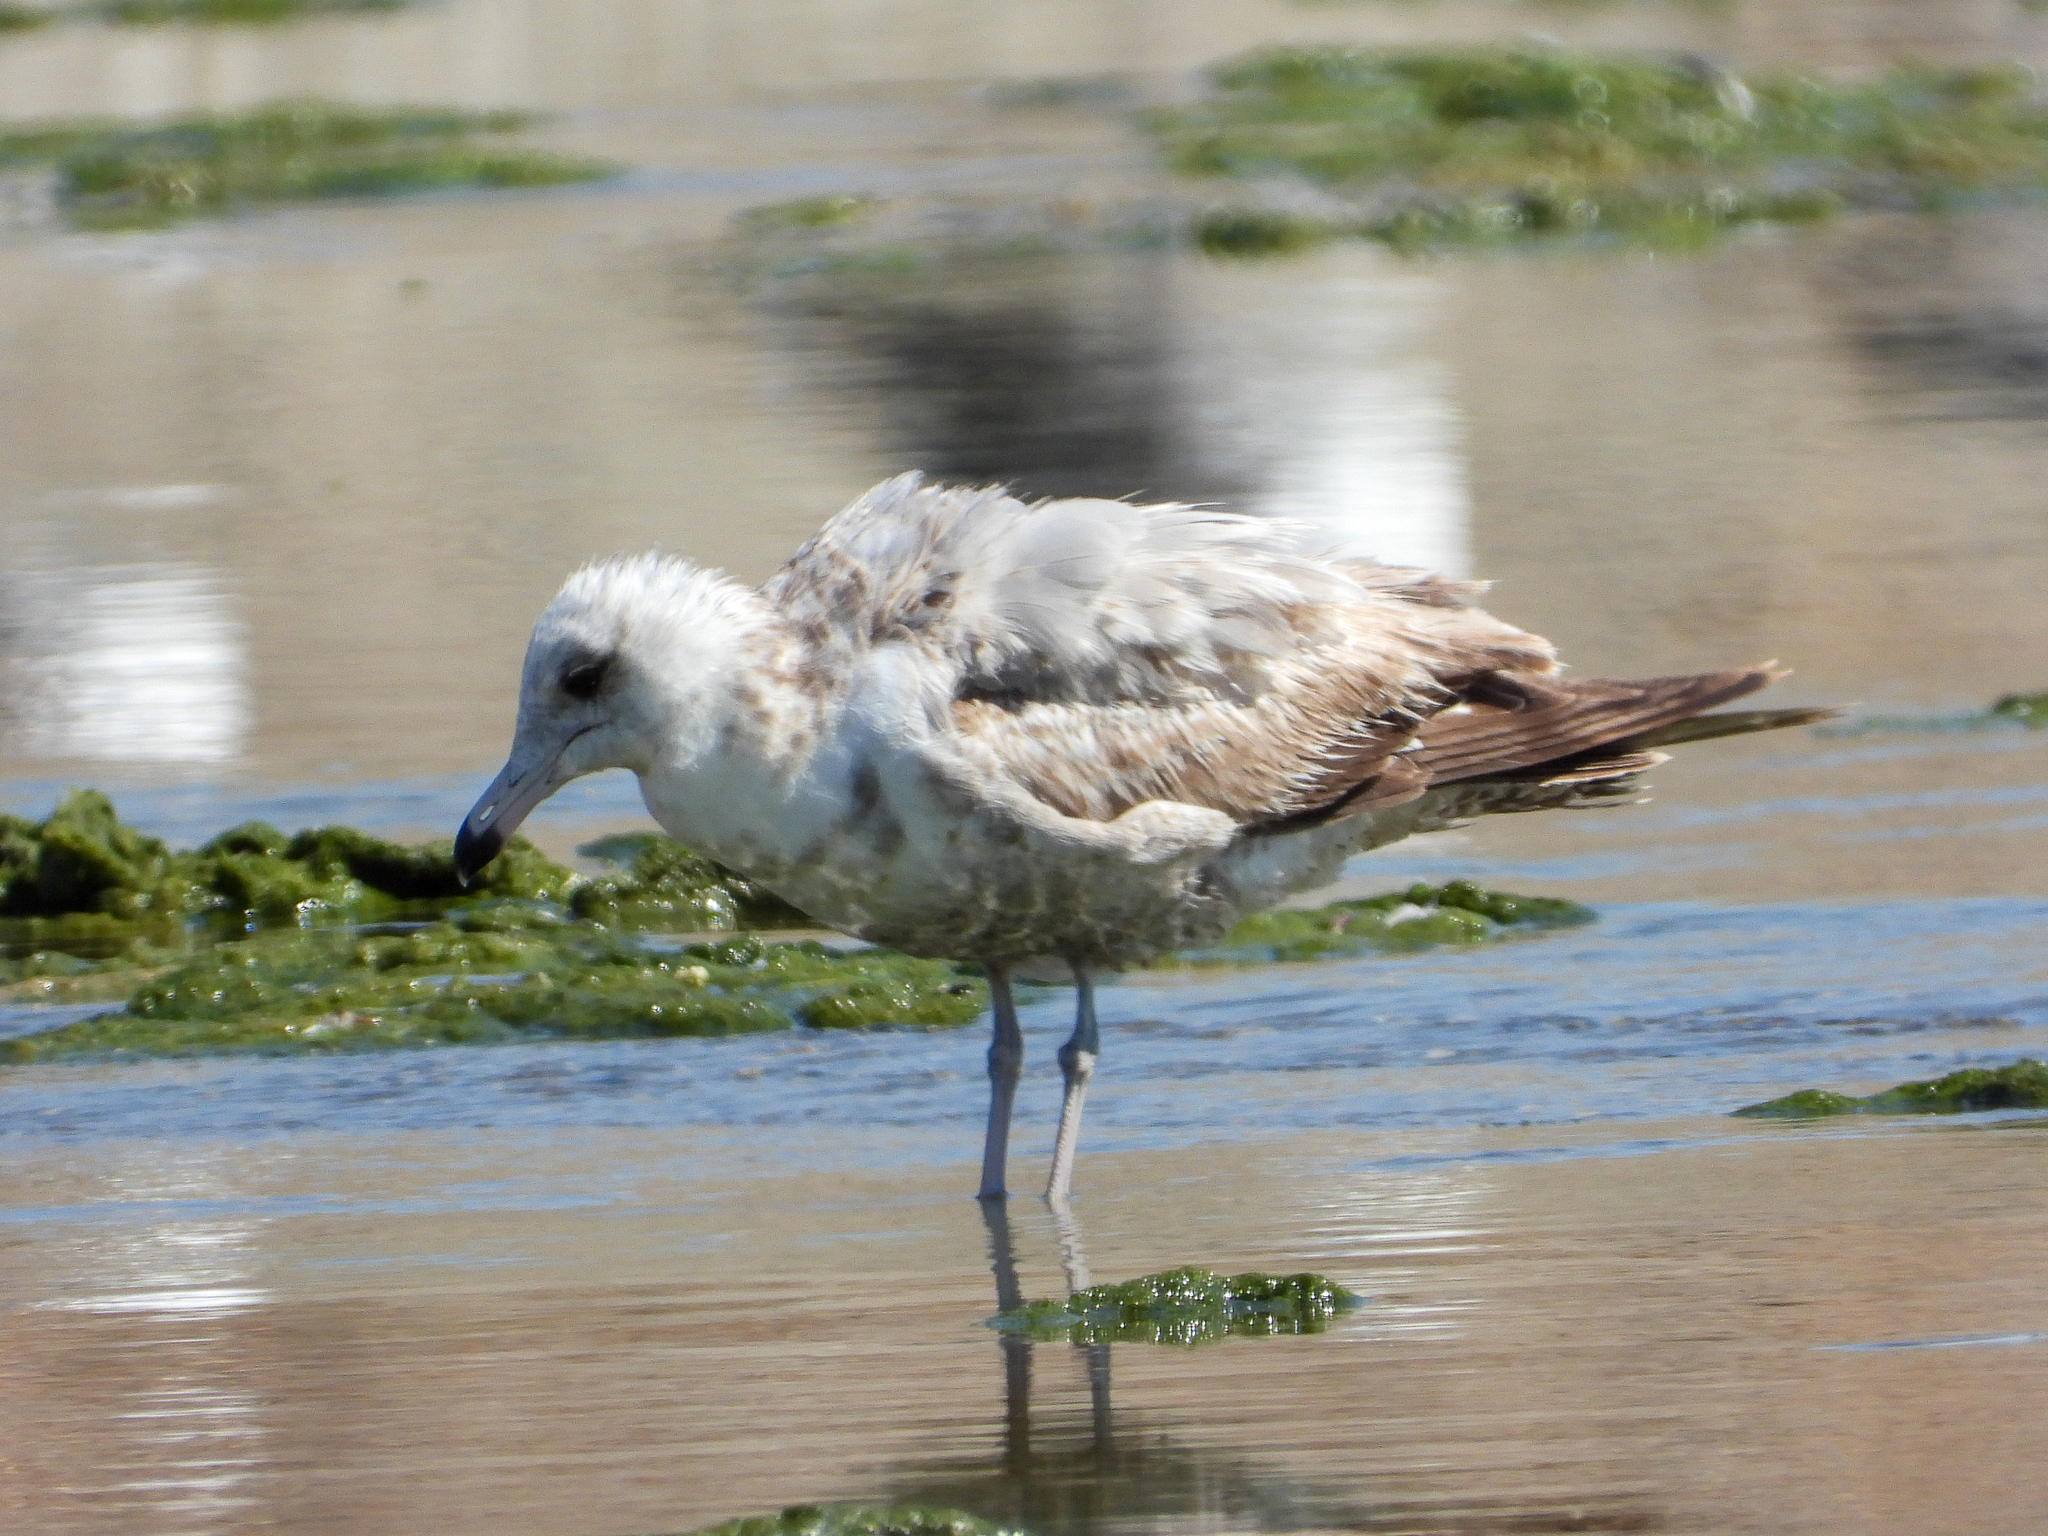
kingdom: Animalia
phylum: Chordata
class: Aves
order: Charadriiformes
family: Laridae
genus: Larus
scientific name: Larus californicus
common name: California gull
